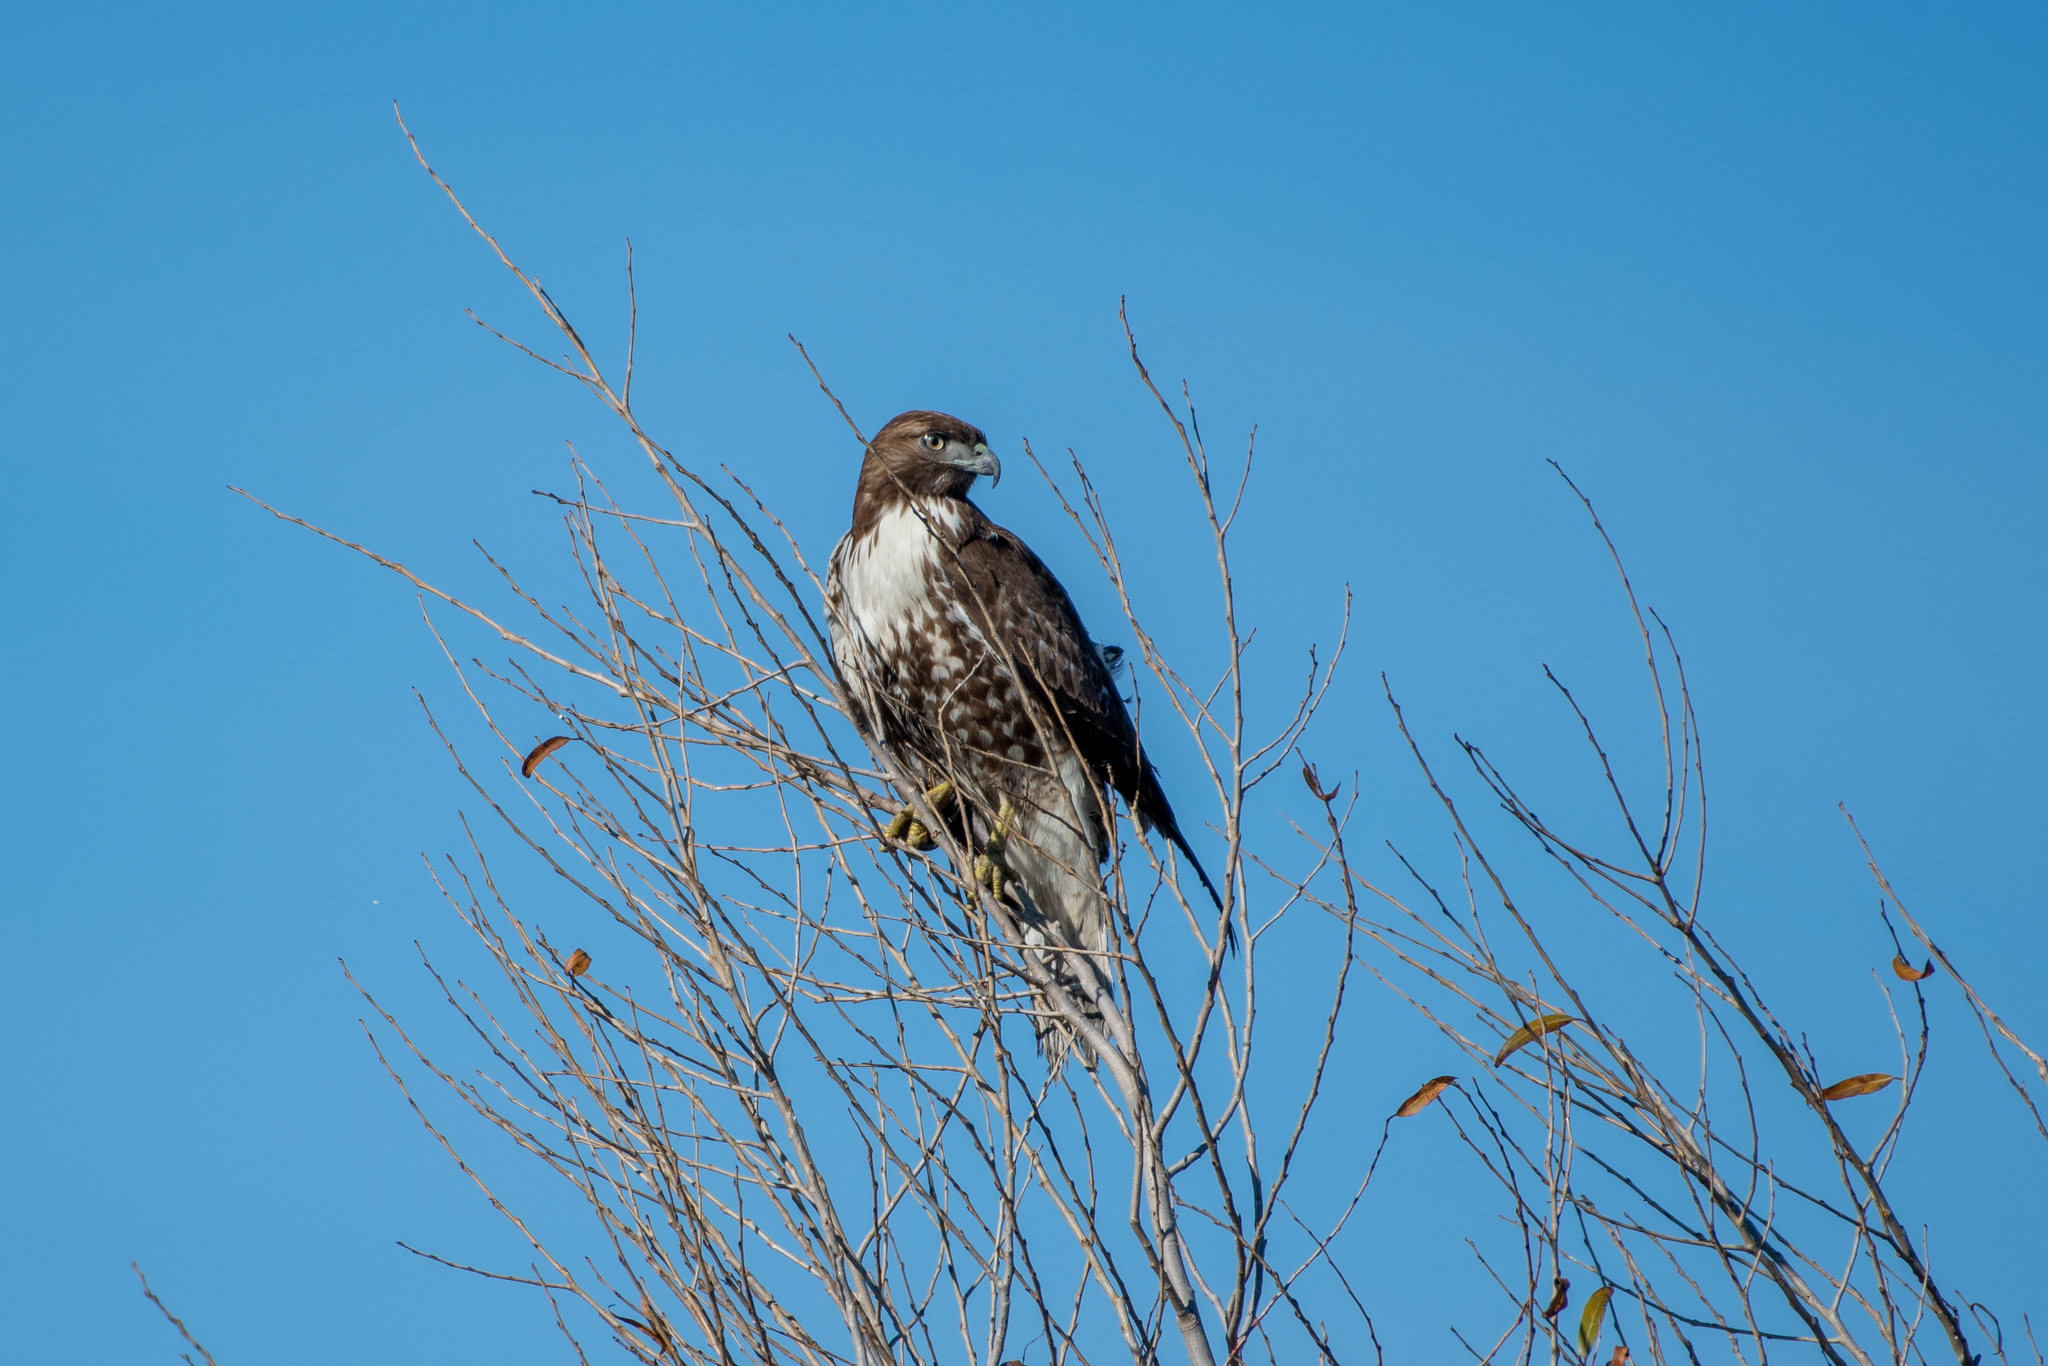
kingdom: Animalia
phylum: Chordata
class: Aves
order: Accipitriformes
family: Accipitridae
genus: Buteo
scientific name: Buteo jamaicensis
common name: Red-tailed hawk
